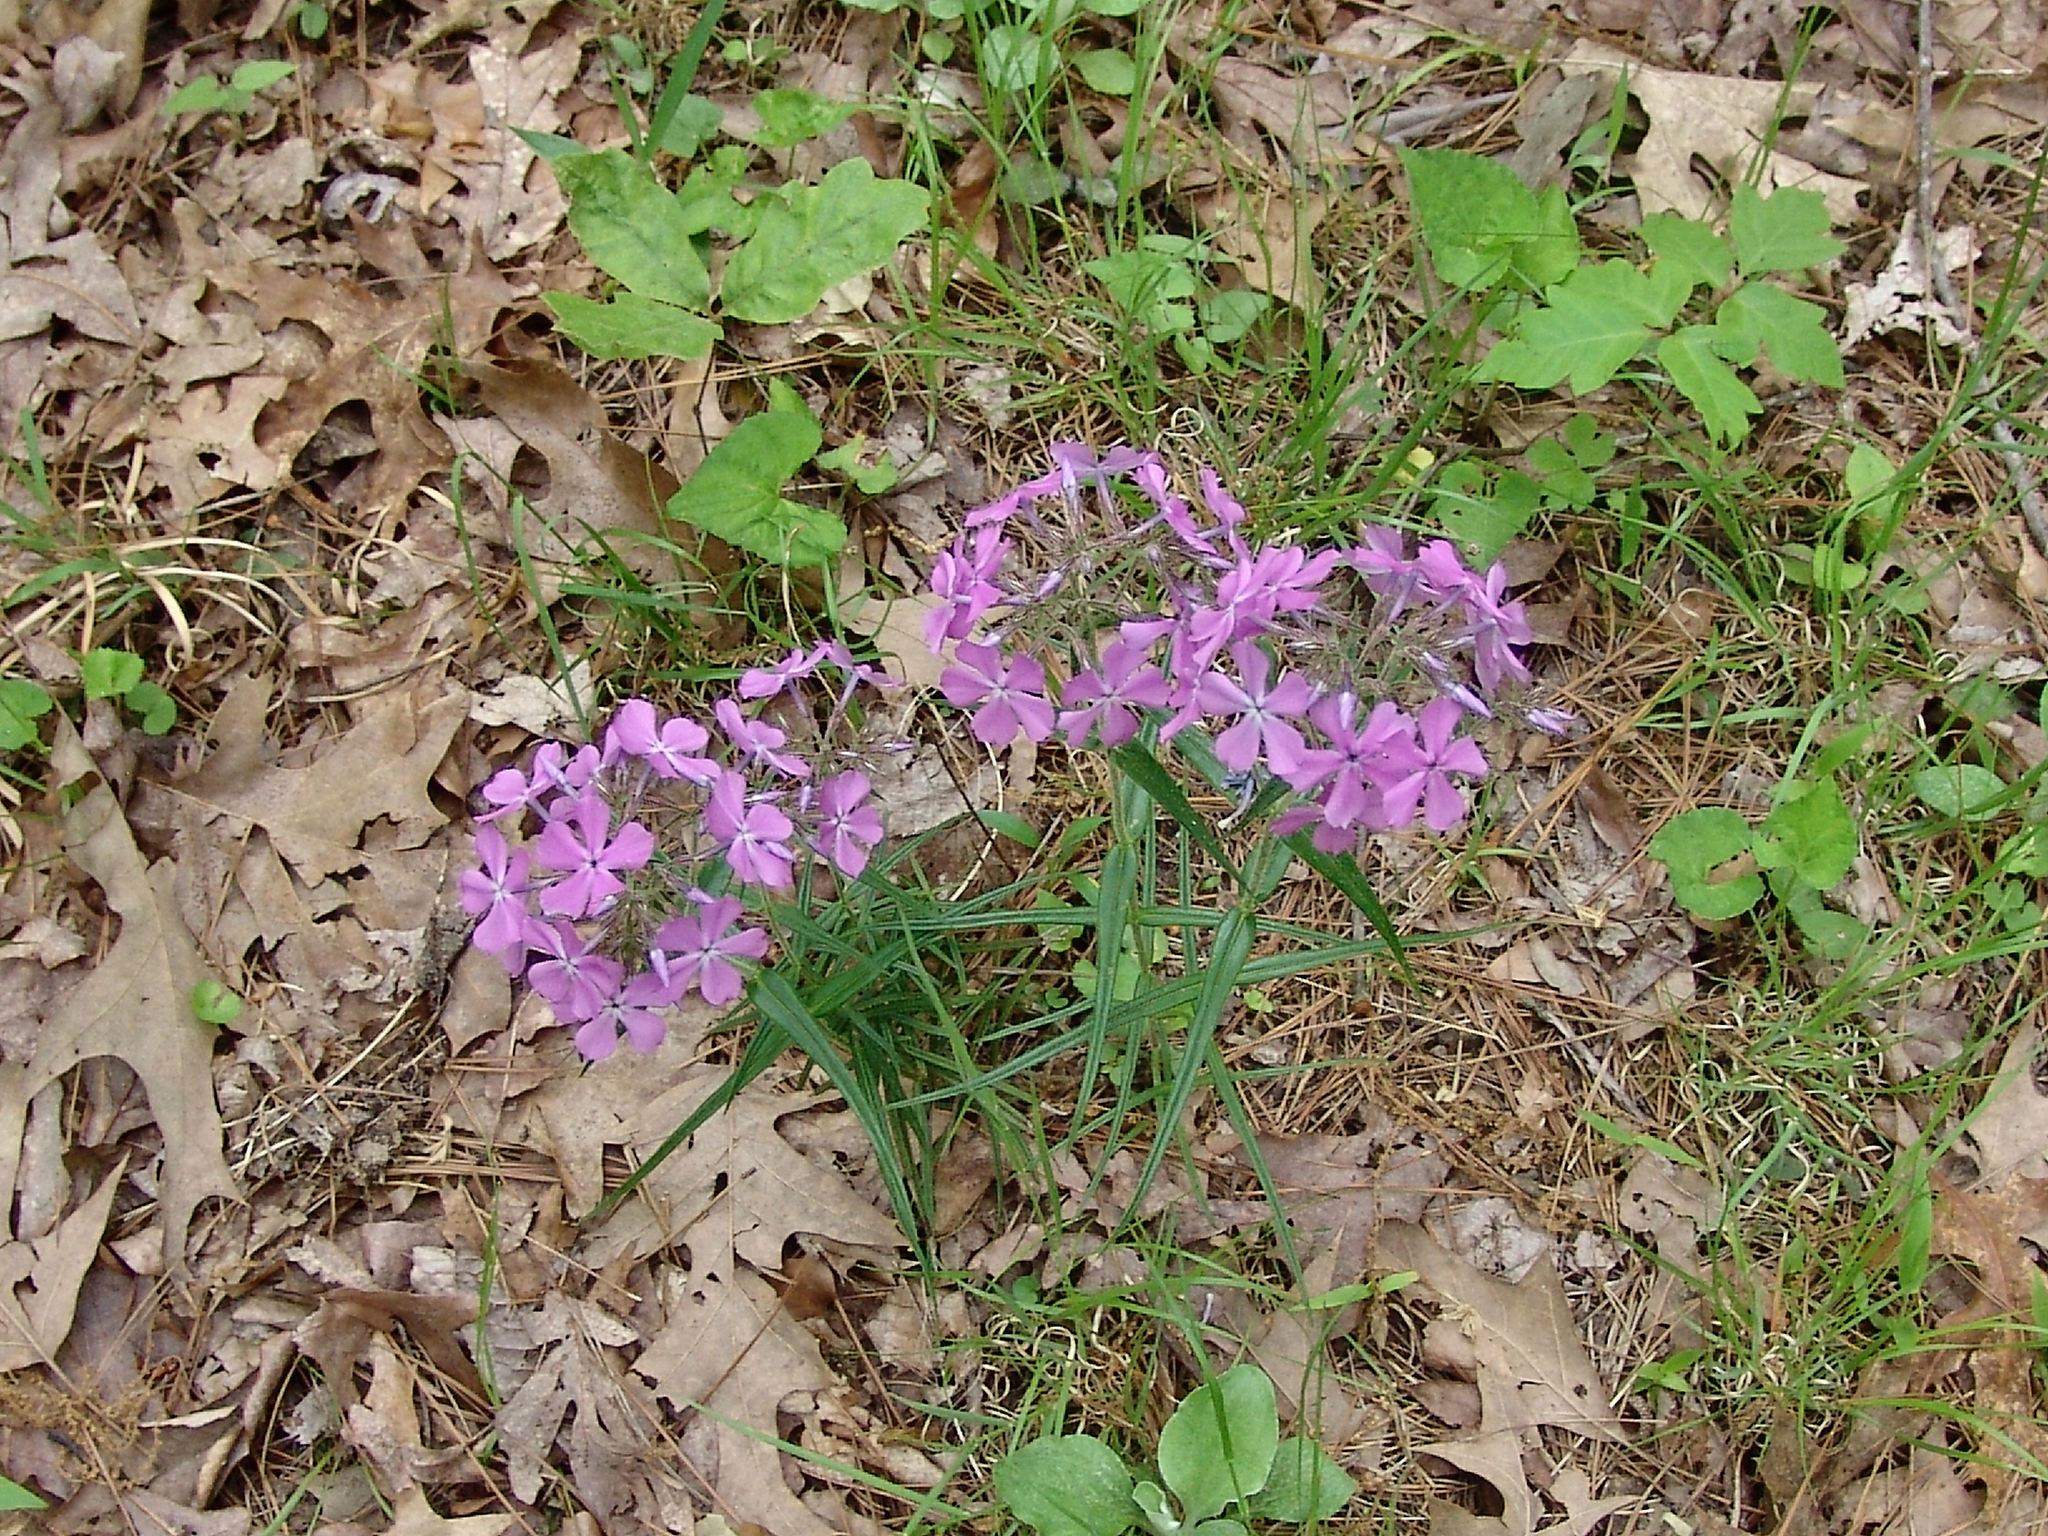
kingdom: Plantae
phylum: Tracheophyta
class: Magnoliopsida
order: Ericales
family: Polemoniaceae
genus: Phlox
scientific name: Phlox pilosa
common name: Prairie phlox
